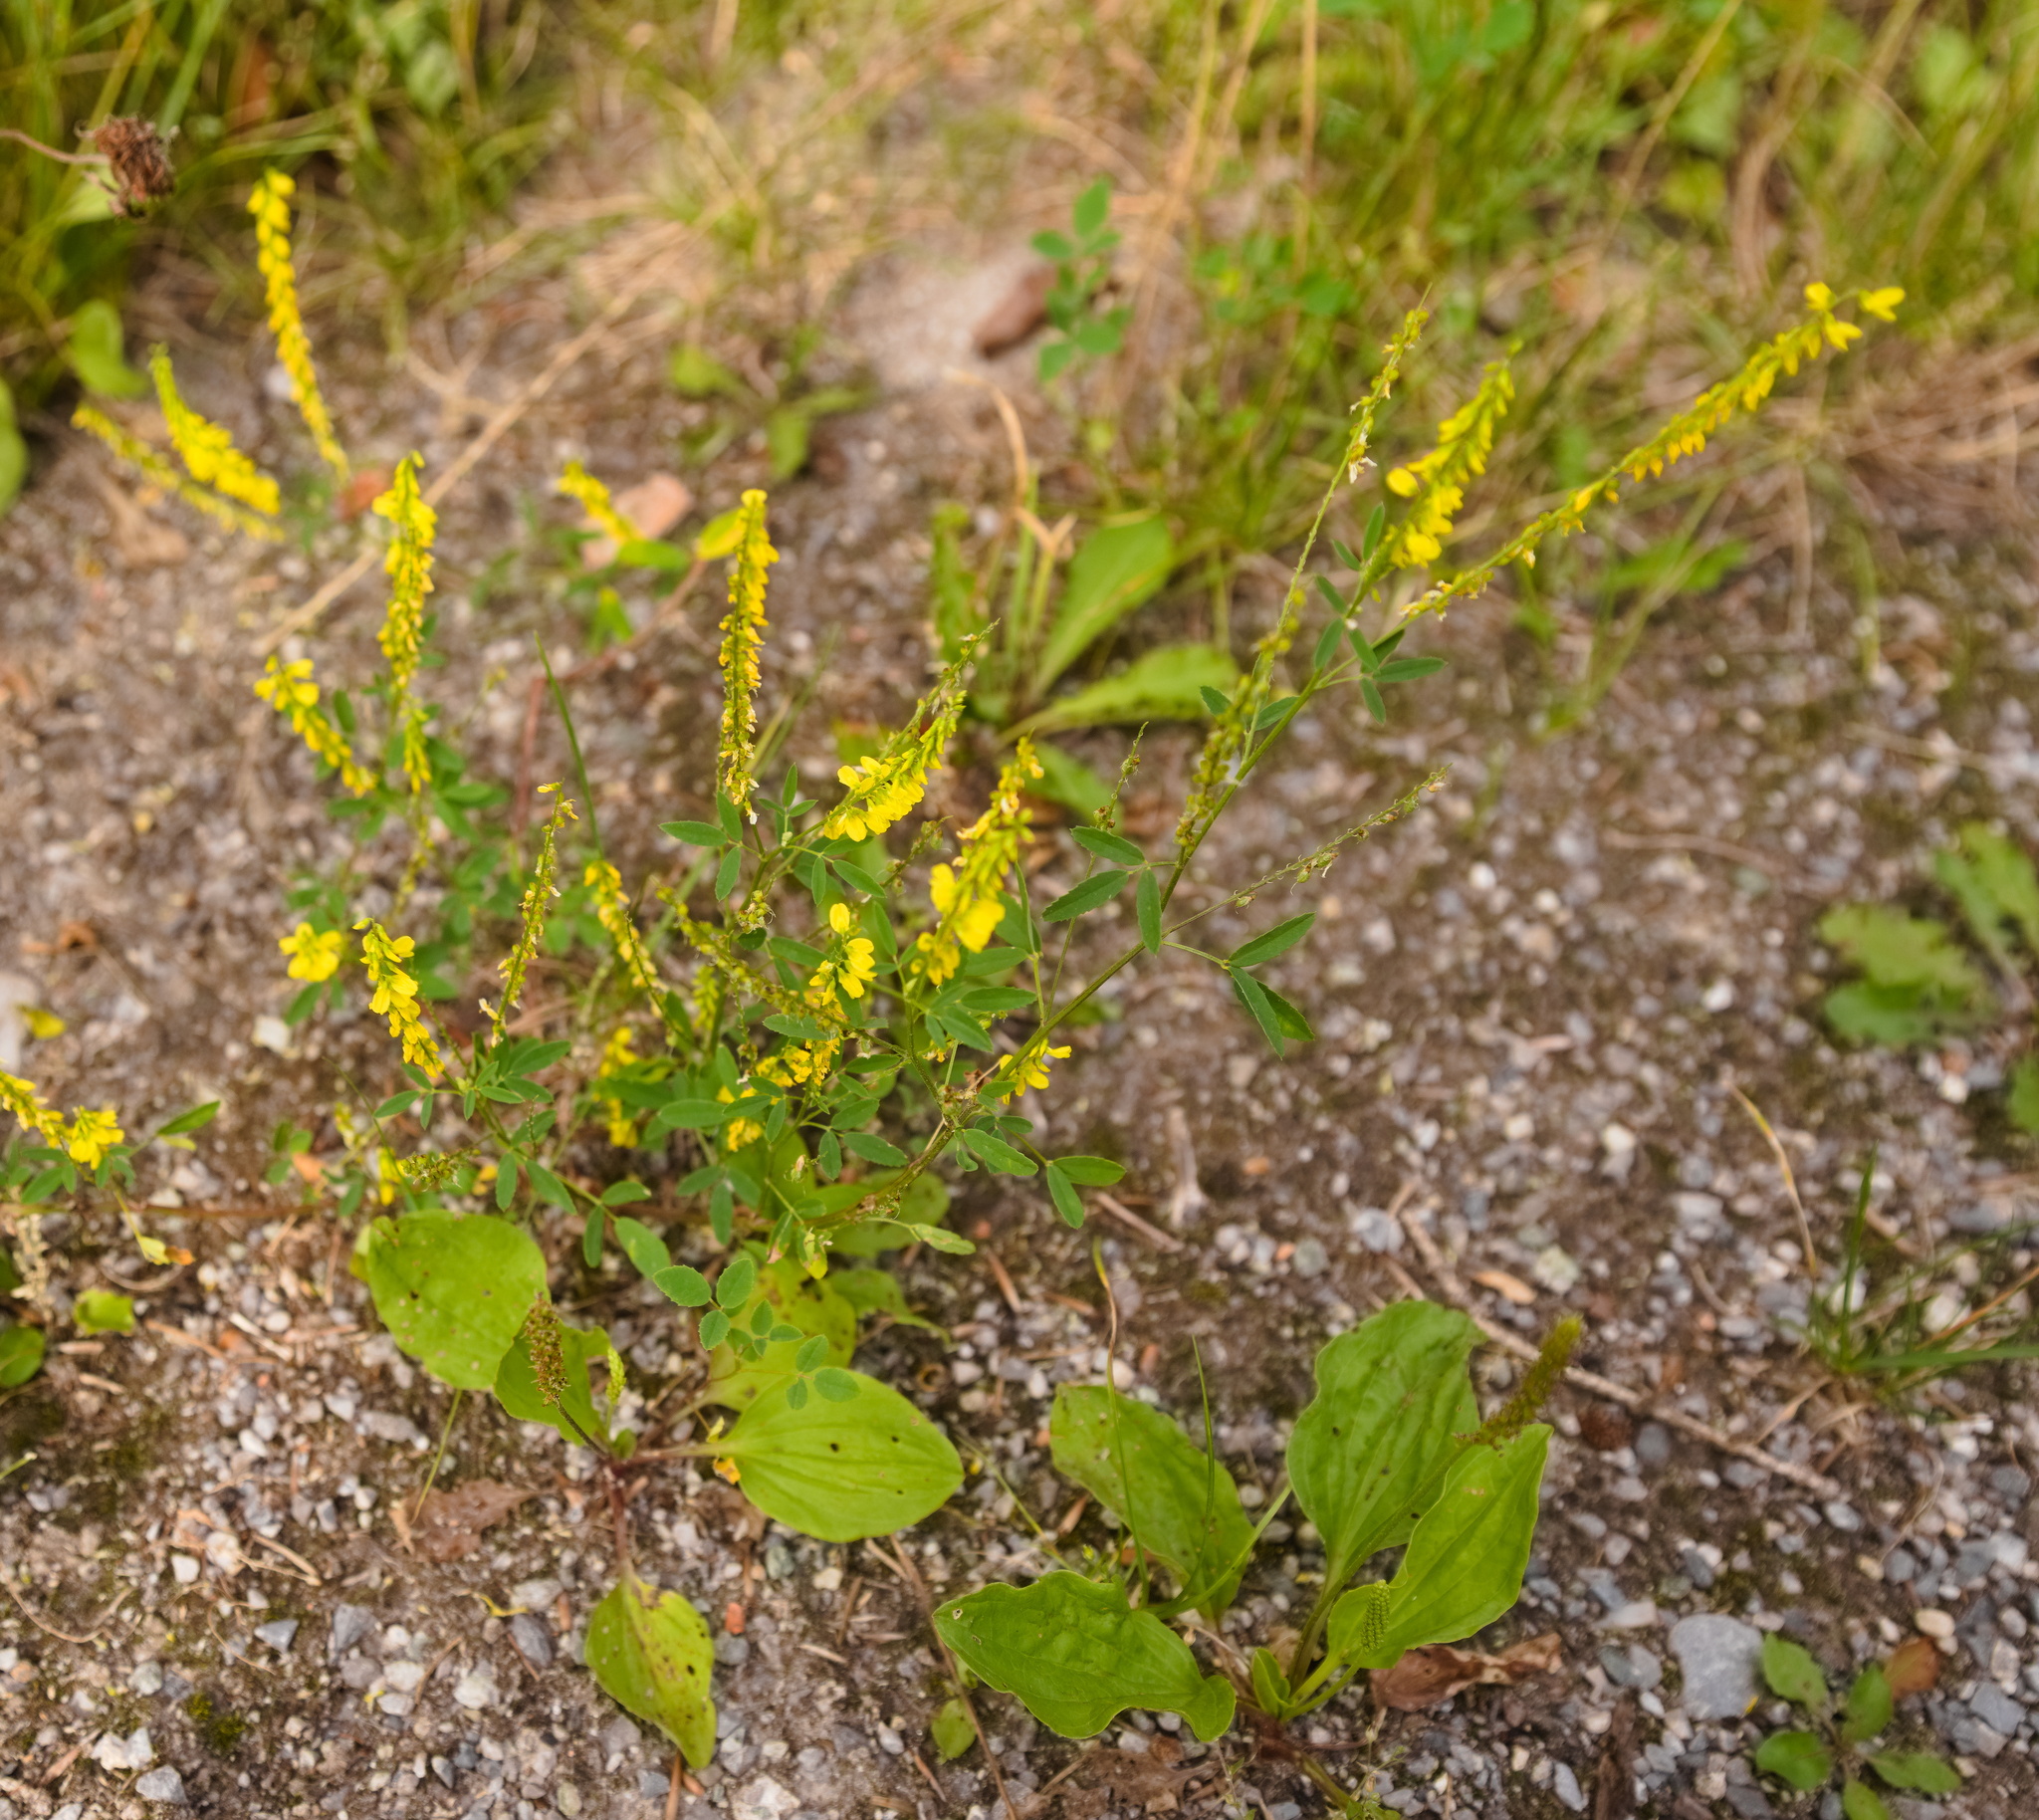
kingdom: Plantae
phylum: Tracheophyta
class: Magnoliopsida
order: Fabales
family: Fabaceae
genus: Melilotus
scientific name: Melilotus officinalis
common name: Sweetclover
